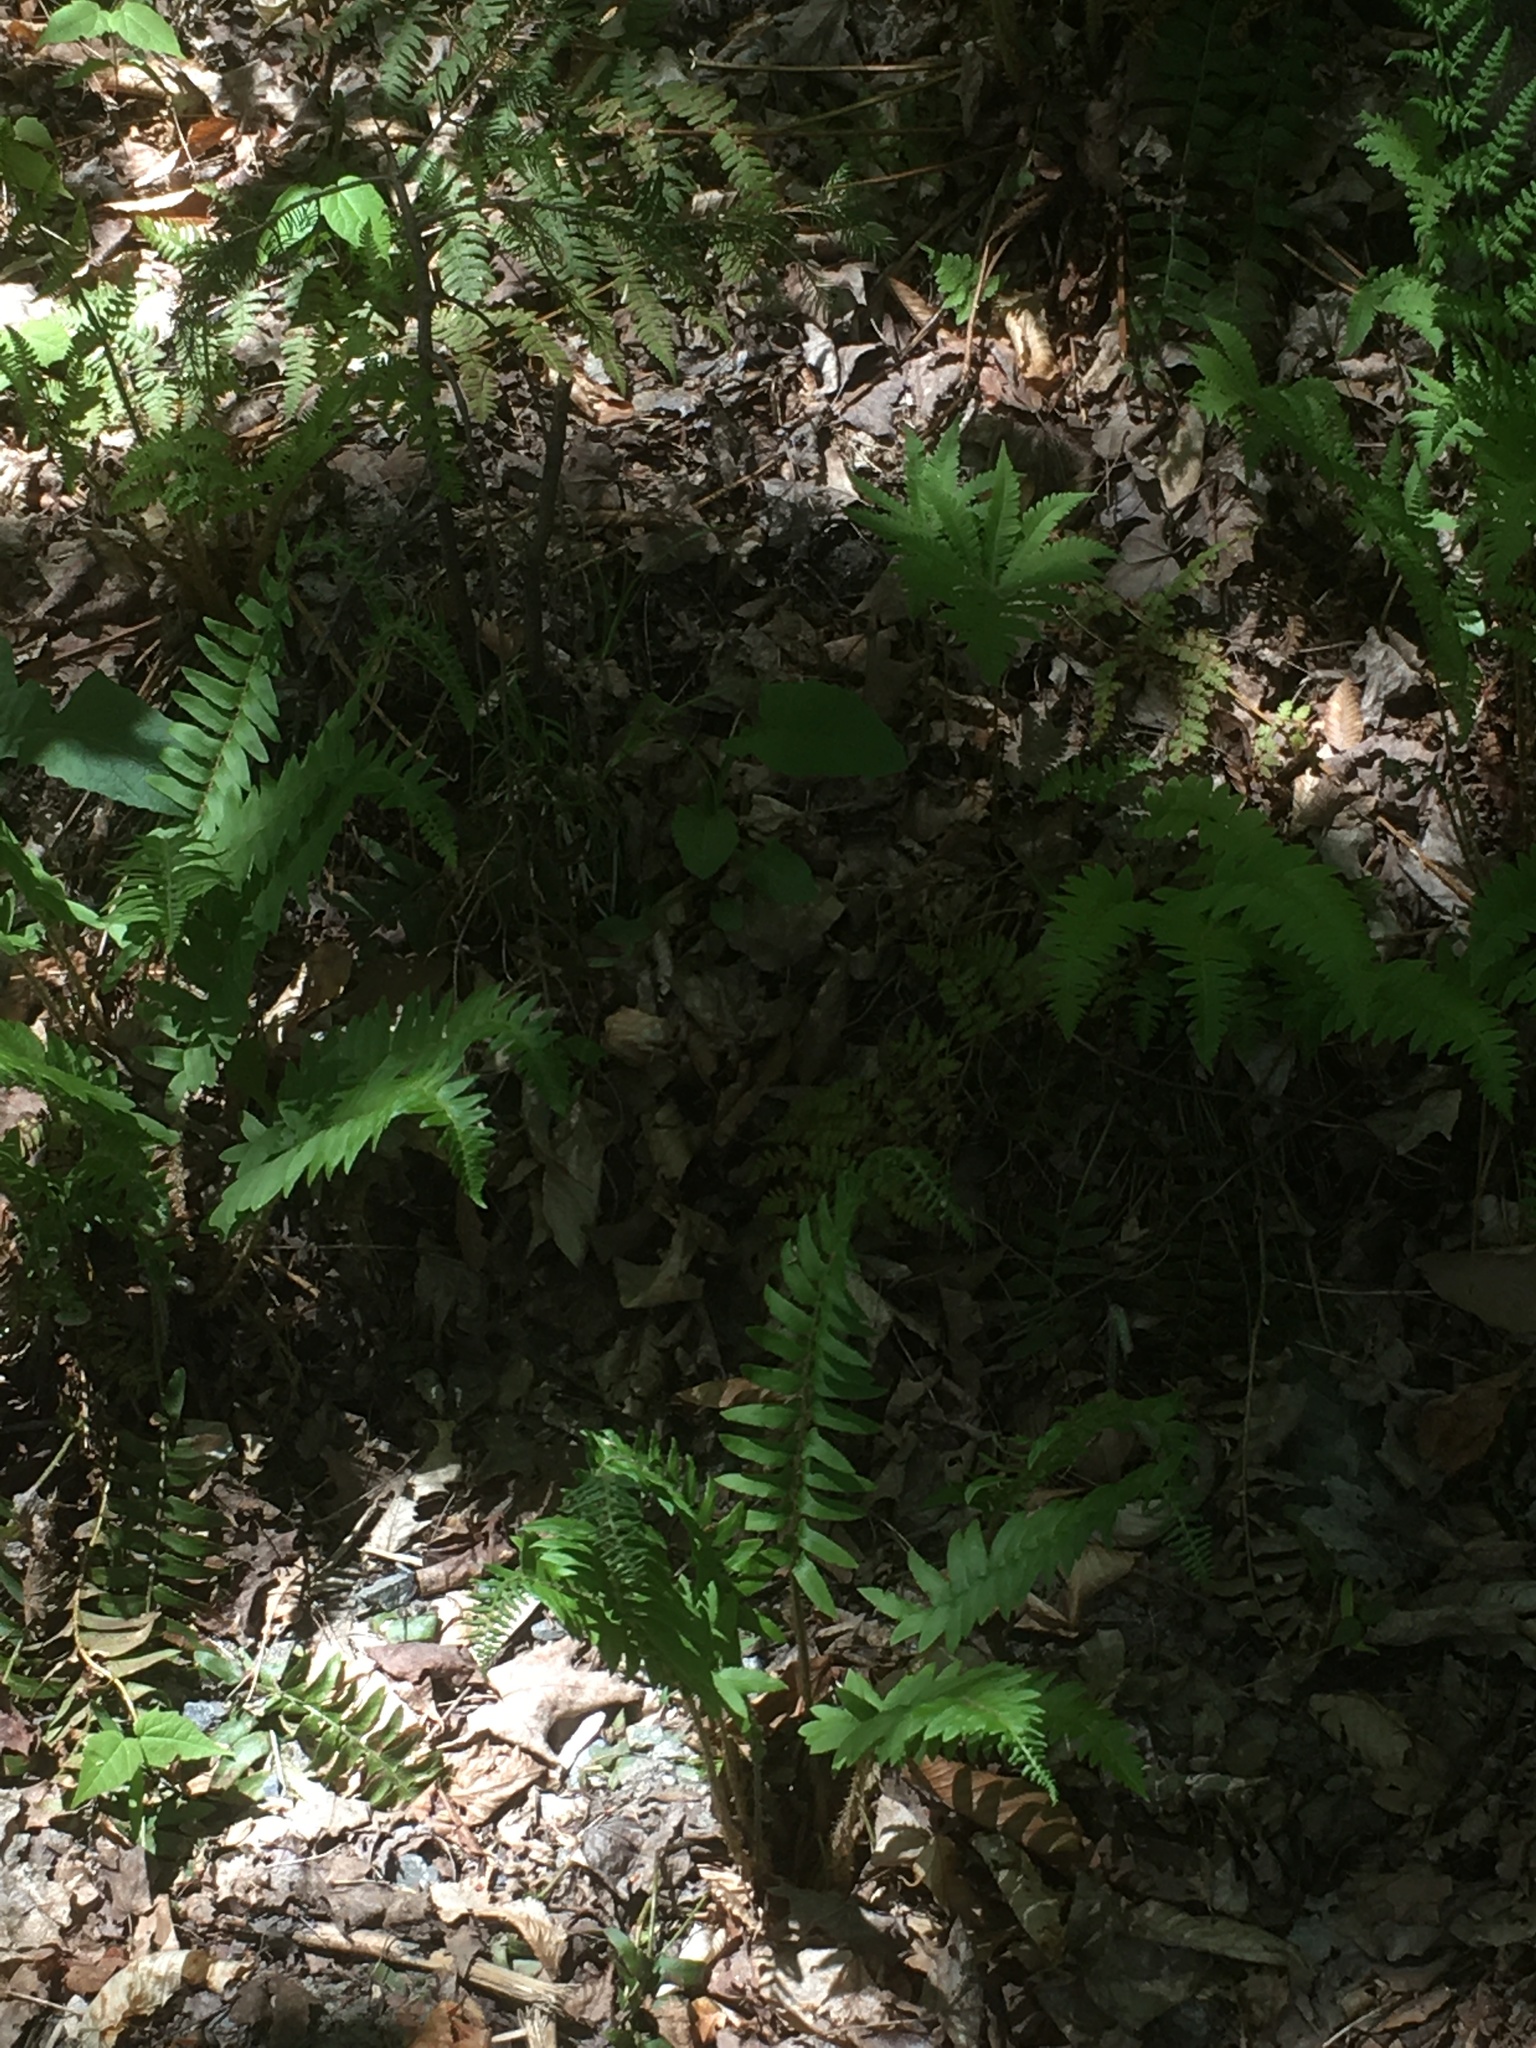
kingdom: Plantae
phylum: Tracheophyta
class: Polypodiopsida
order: Polypodiales
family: Dryopteridaceae
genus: Polystichum
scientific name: Polystichum acrostichoides
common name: Christmas fern
